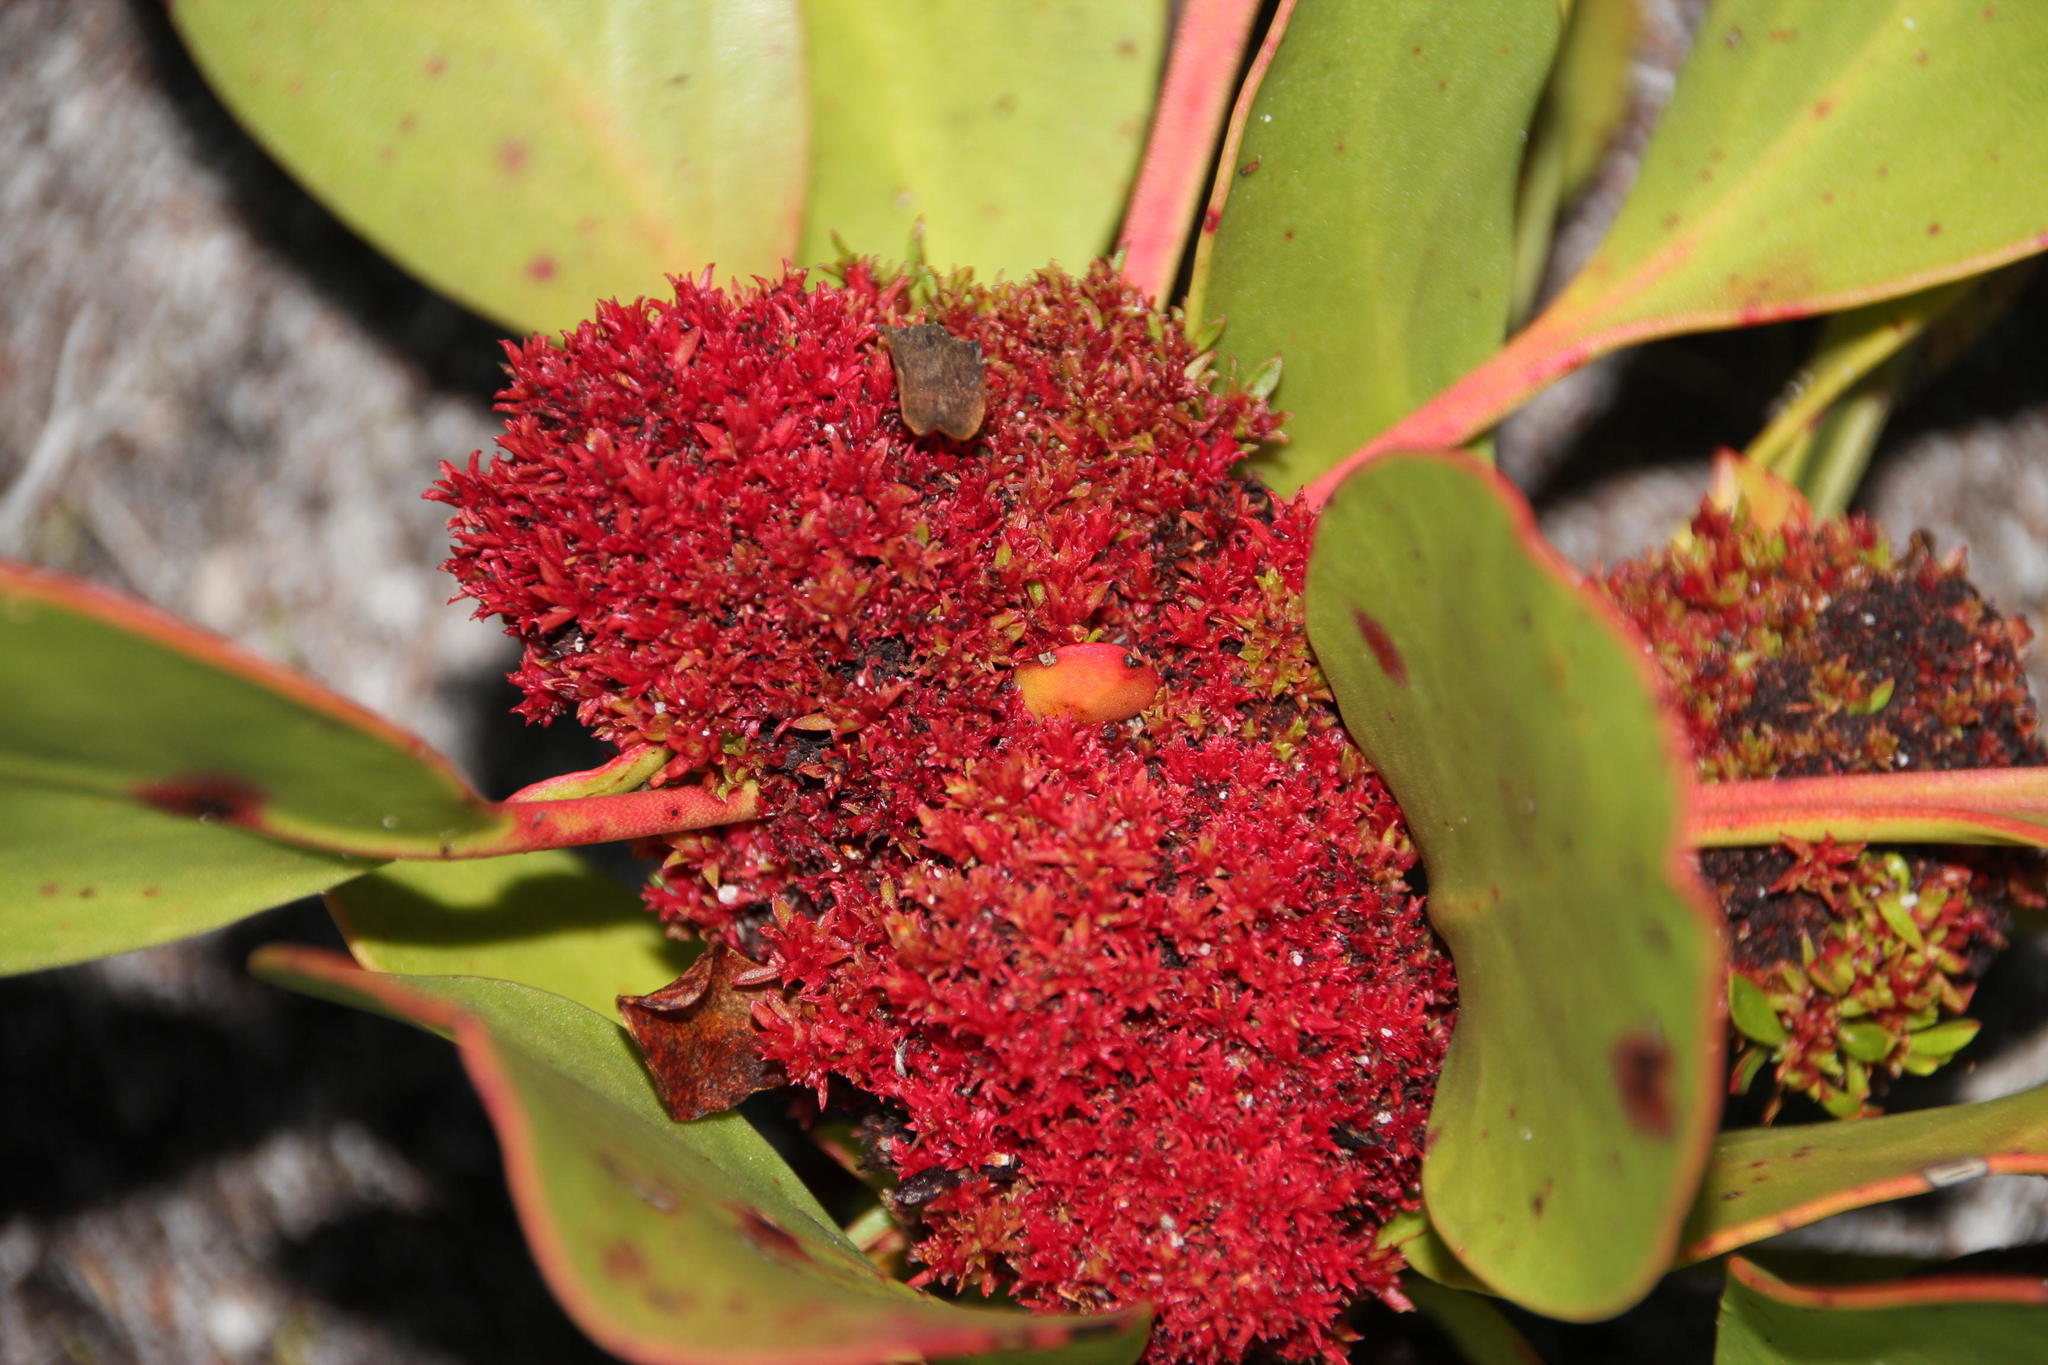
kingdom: Bacteria
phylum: Firmicutes
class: Bacilli
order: Acholeplasmatales
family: Acholeplasmataceae
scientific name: Acholeplasmataceae
